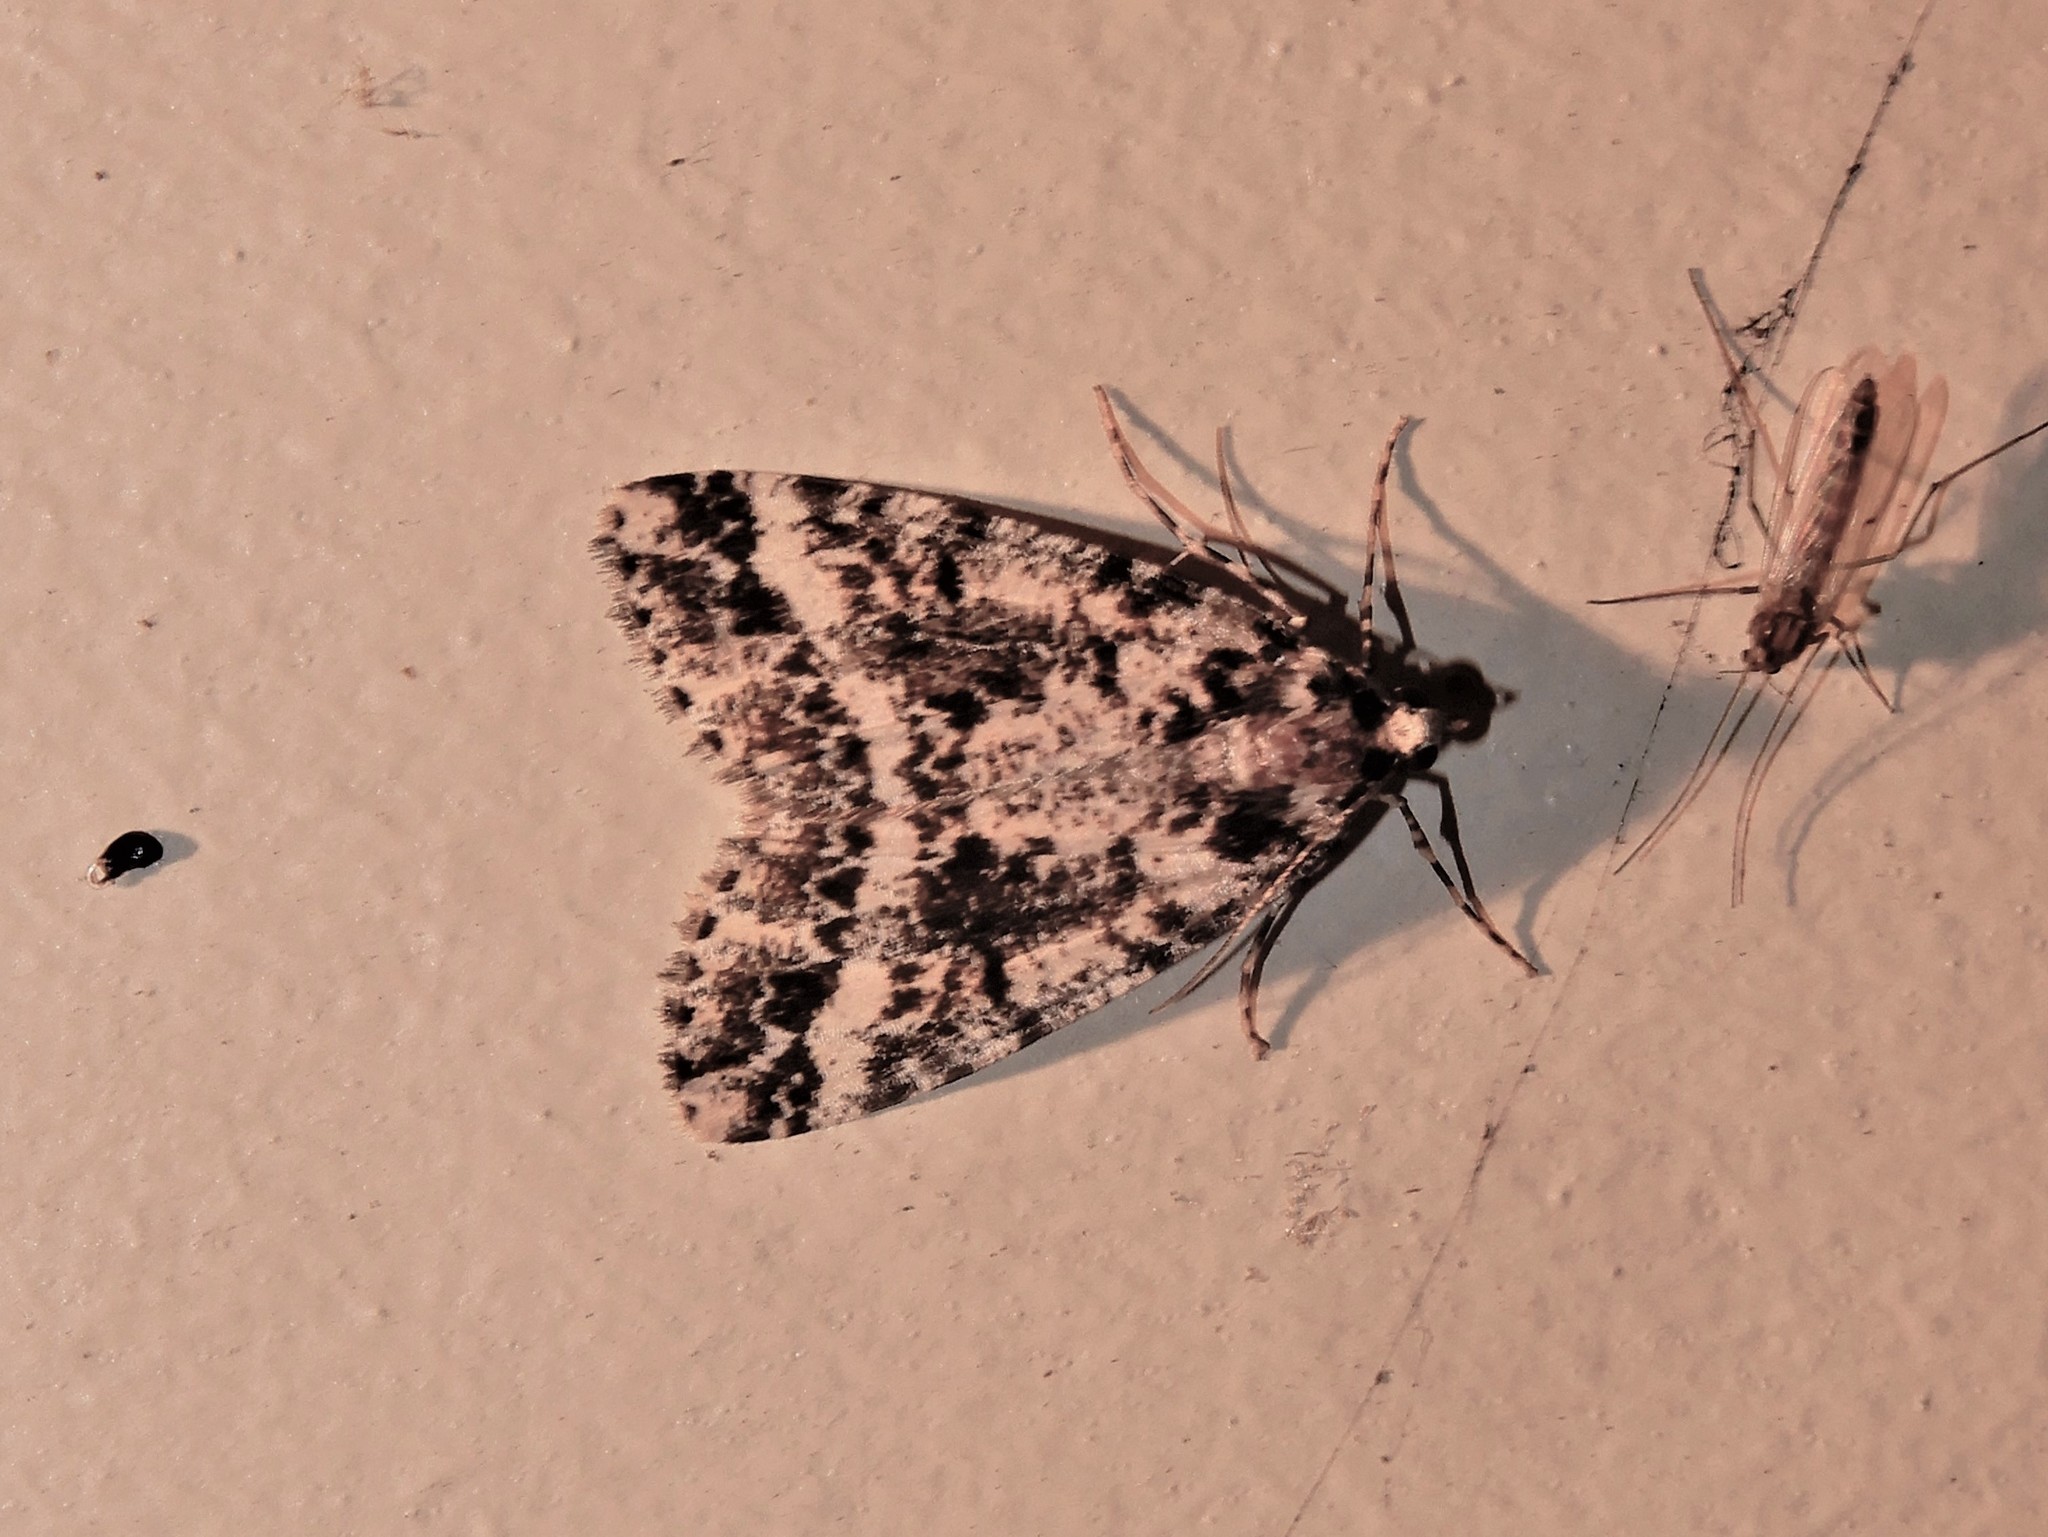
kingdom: Animalia
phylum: Arthropoda
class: Insecta
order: Lepidoptera
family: Geometridae
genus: Pseudocoremia
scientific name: Pseudocoremia leucelaea
